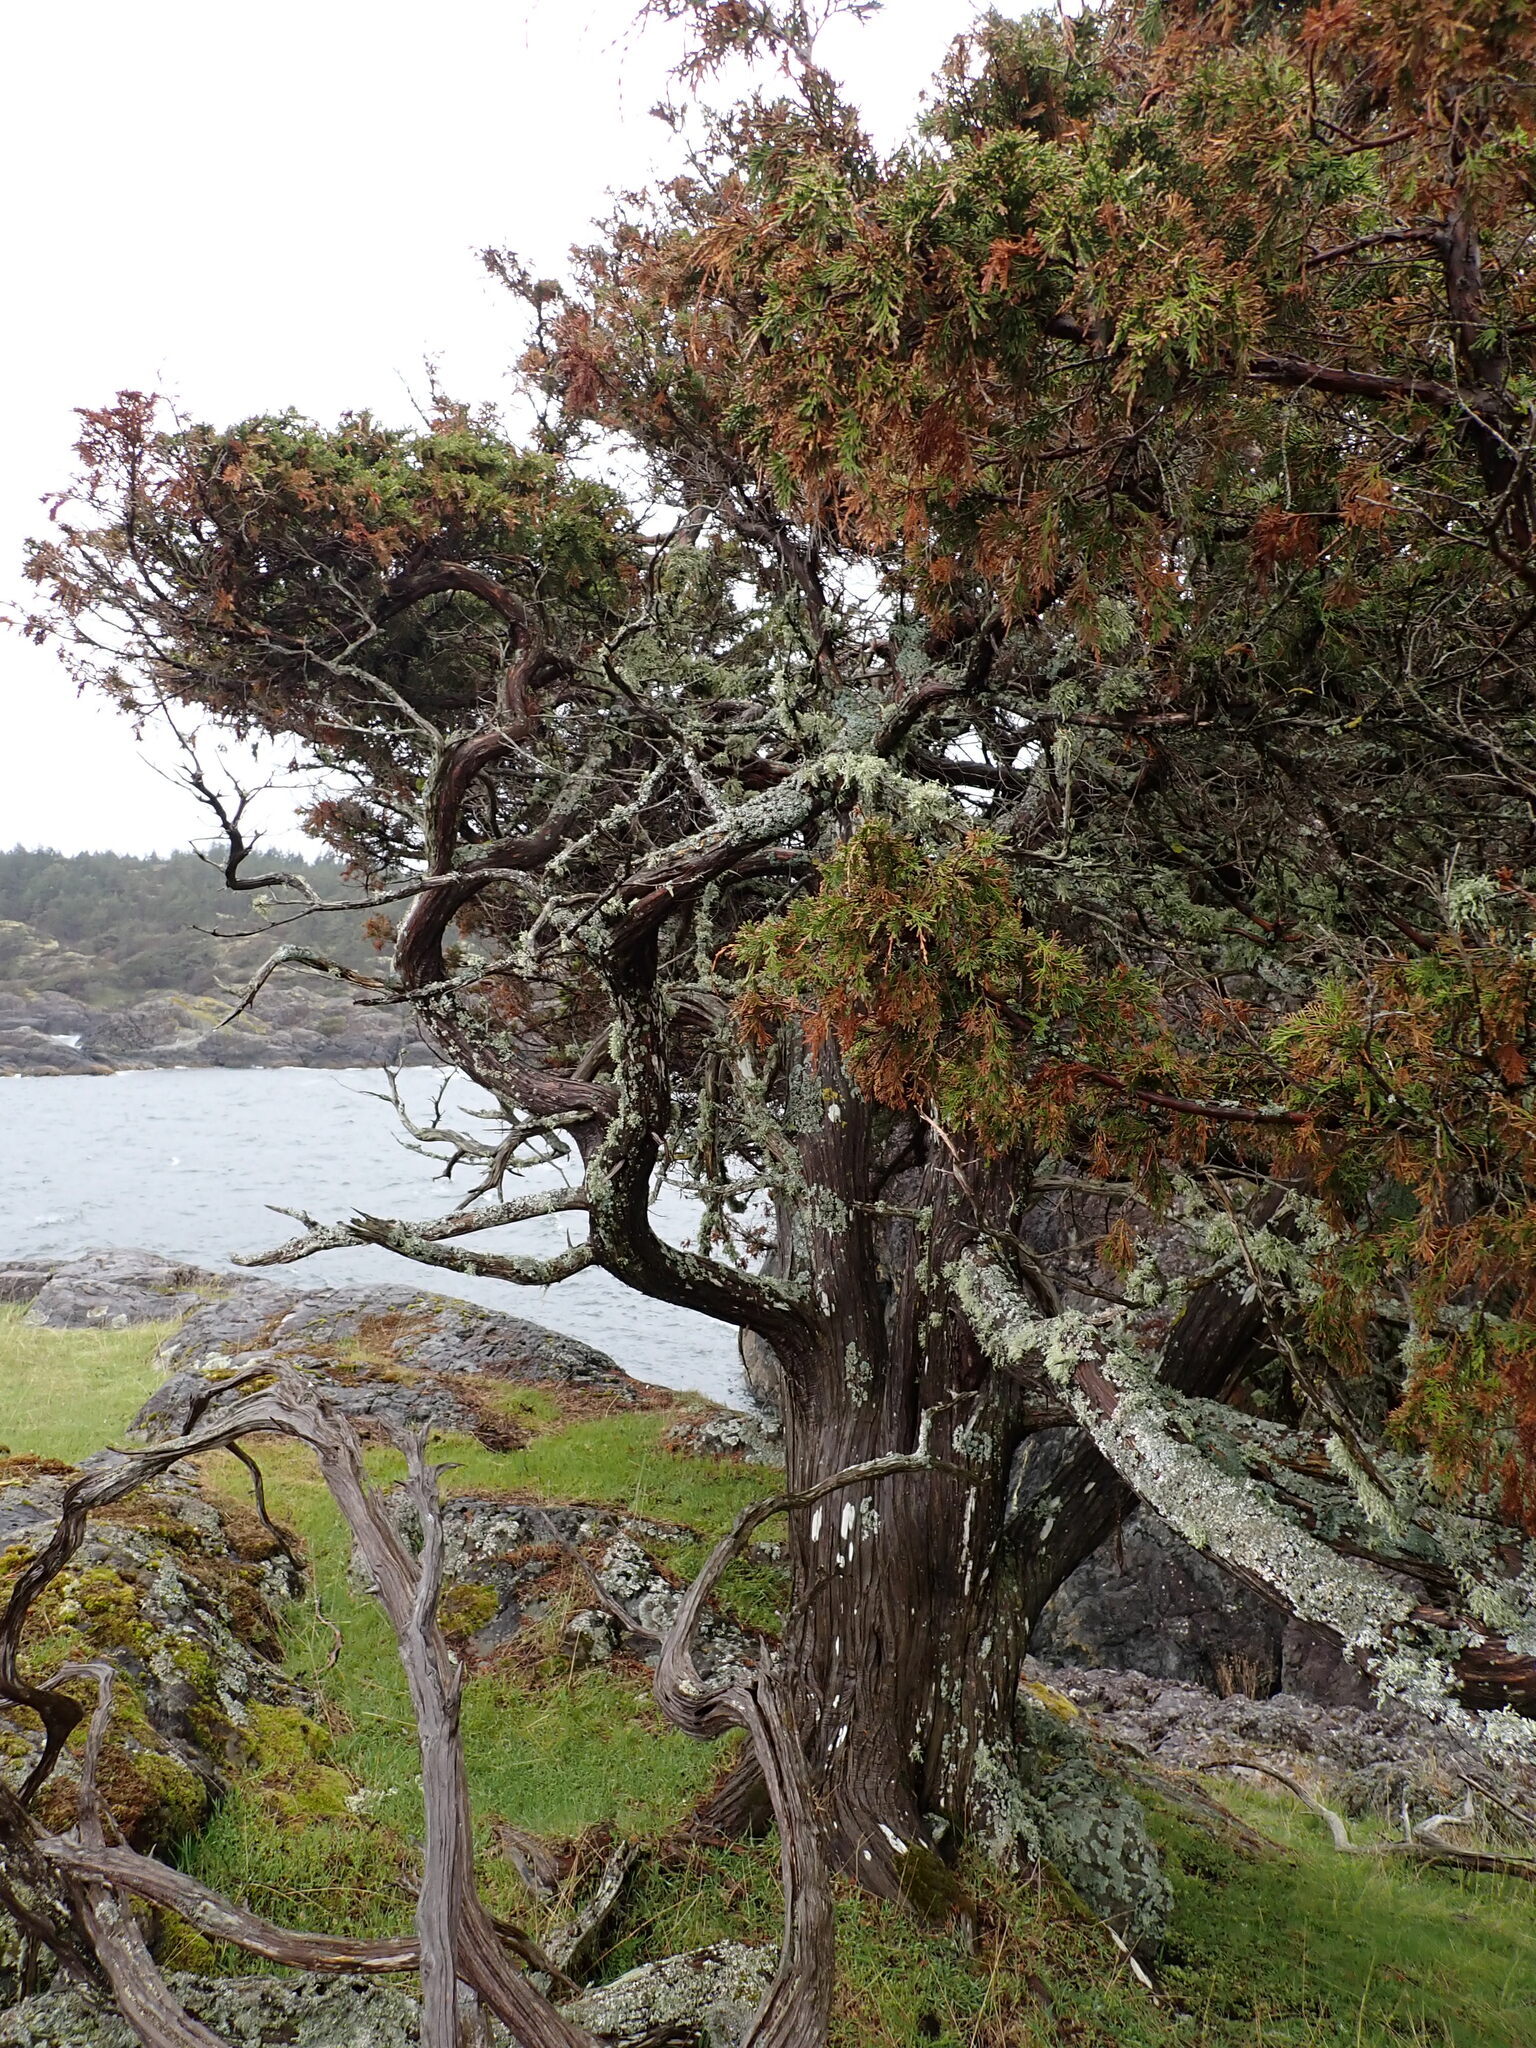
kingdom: Plantae
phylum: Tracheophyta
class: Pinopsida
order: Pinales
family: Cupressaceae
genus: Juniperus
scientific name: Juniperus scopulorum
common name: Rocky mountain juniper
